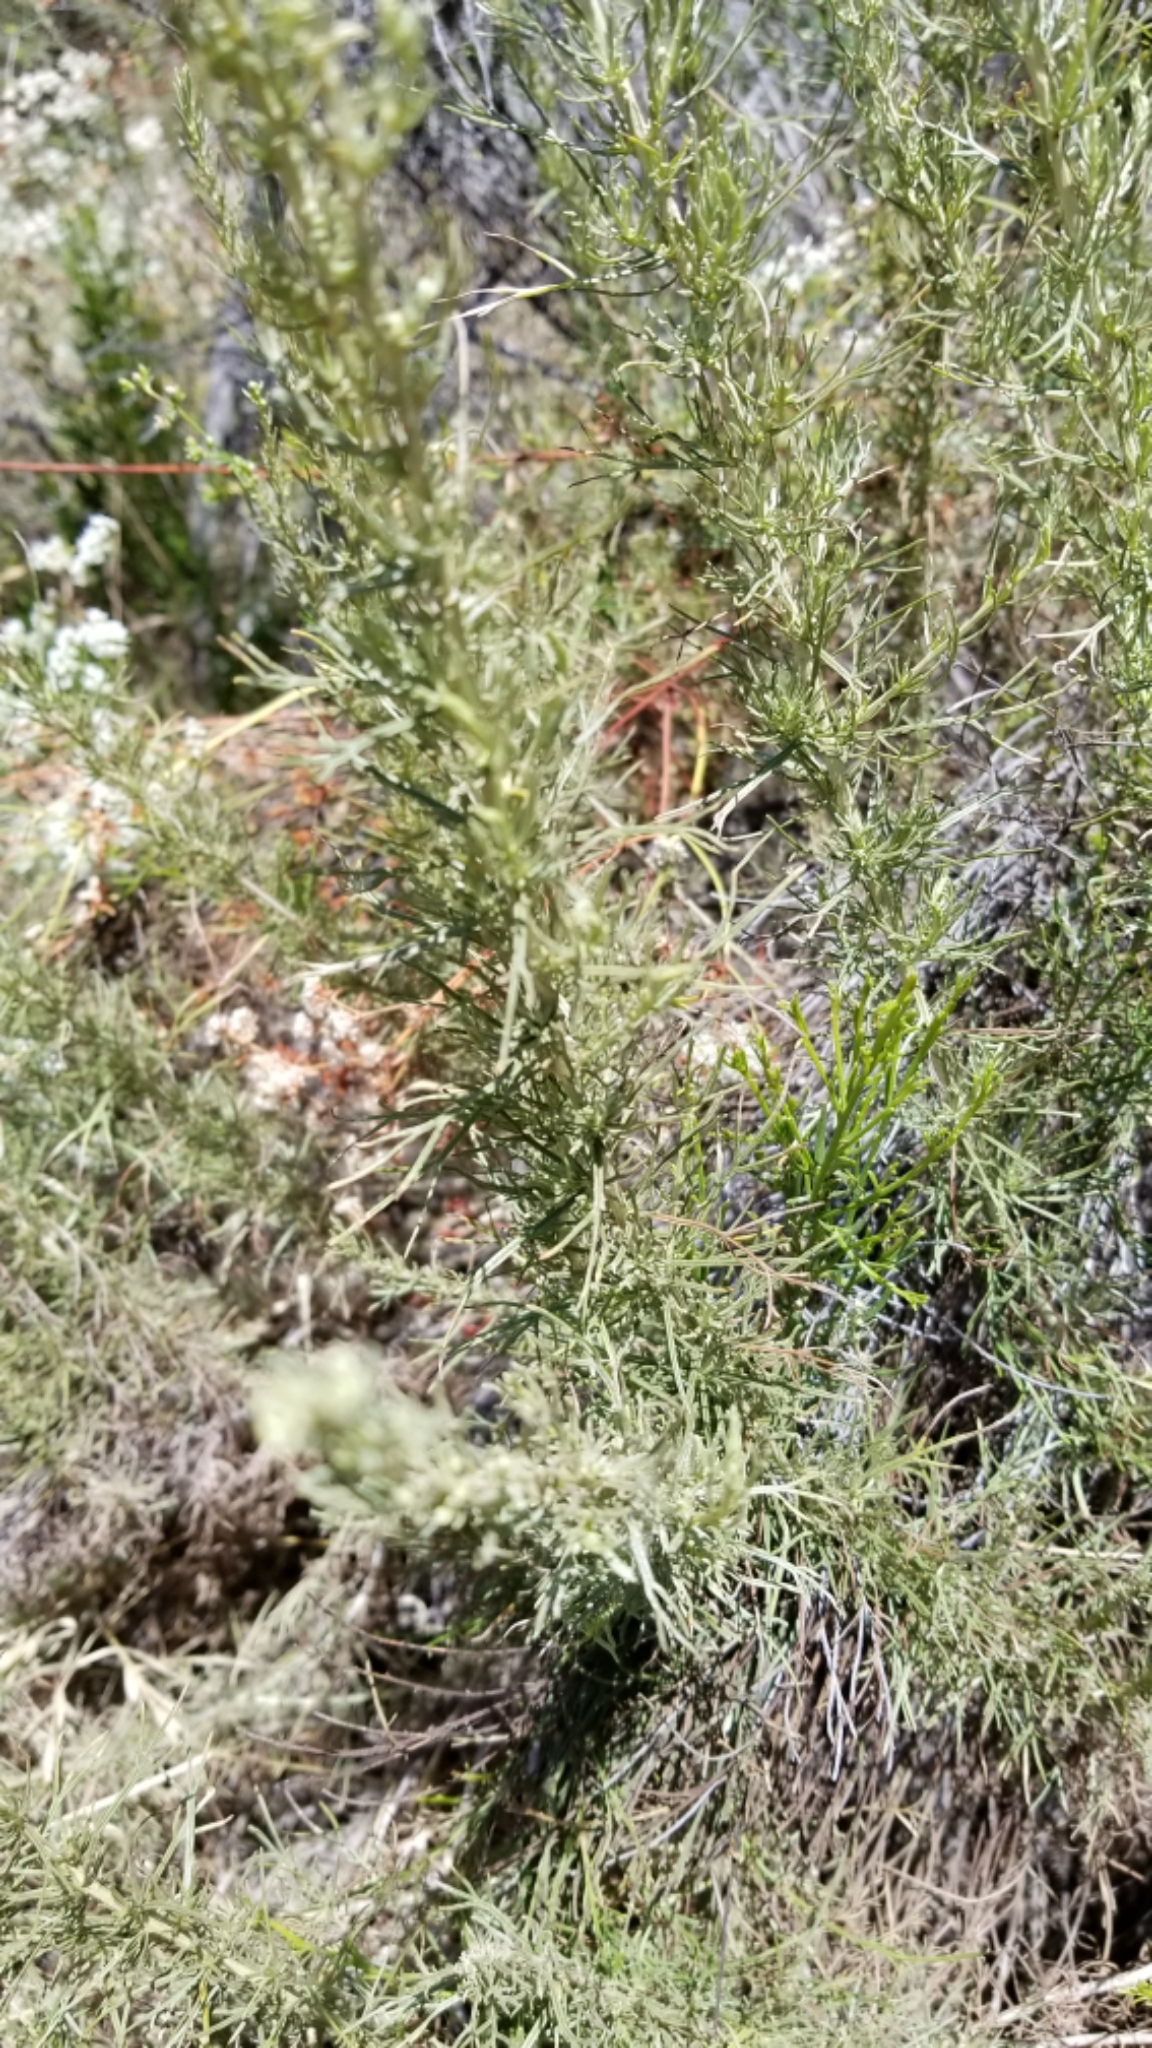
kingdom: Plantae
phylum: Tracheophyta
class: Magnoliopsida
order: Asterales
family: Asteraceae
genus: Artemisia
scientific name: Artemisia californica
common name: California sagebrush
